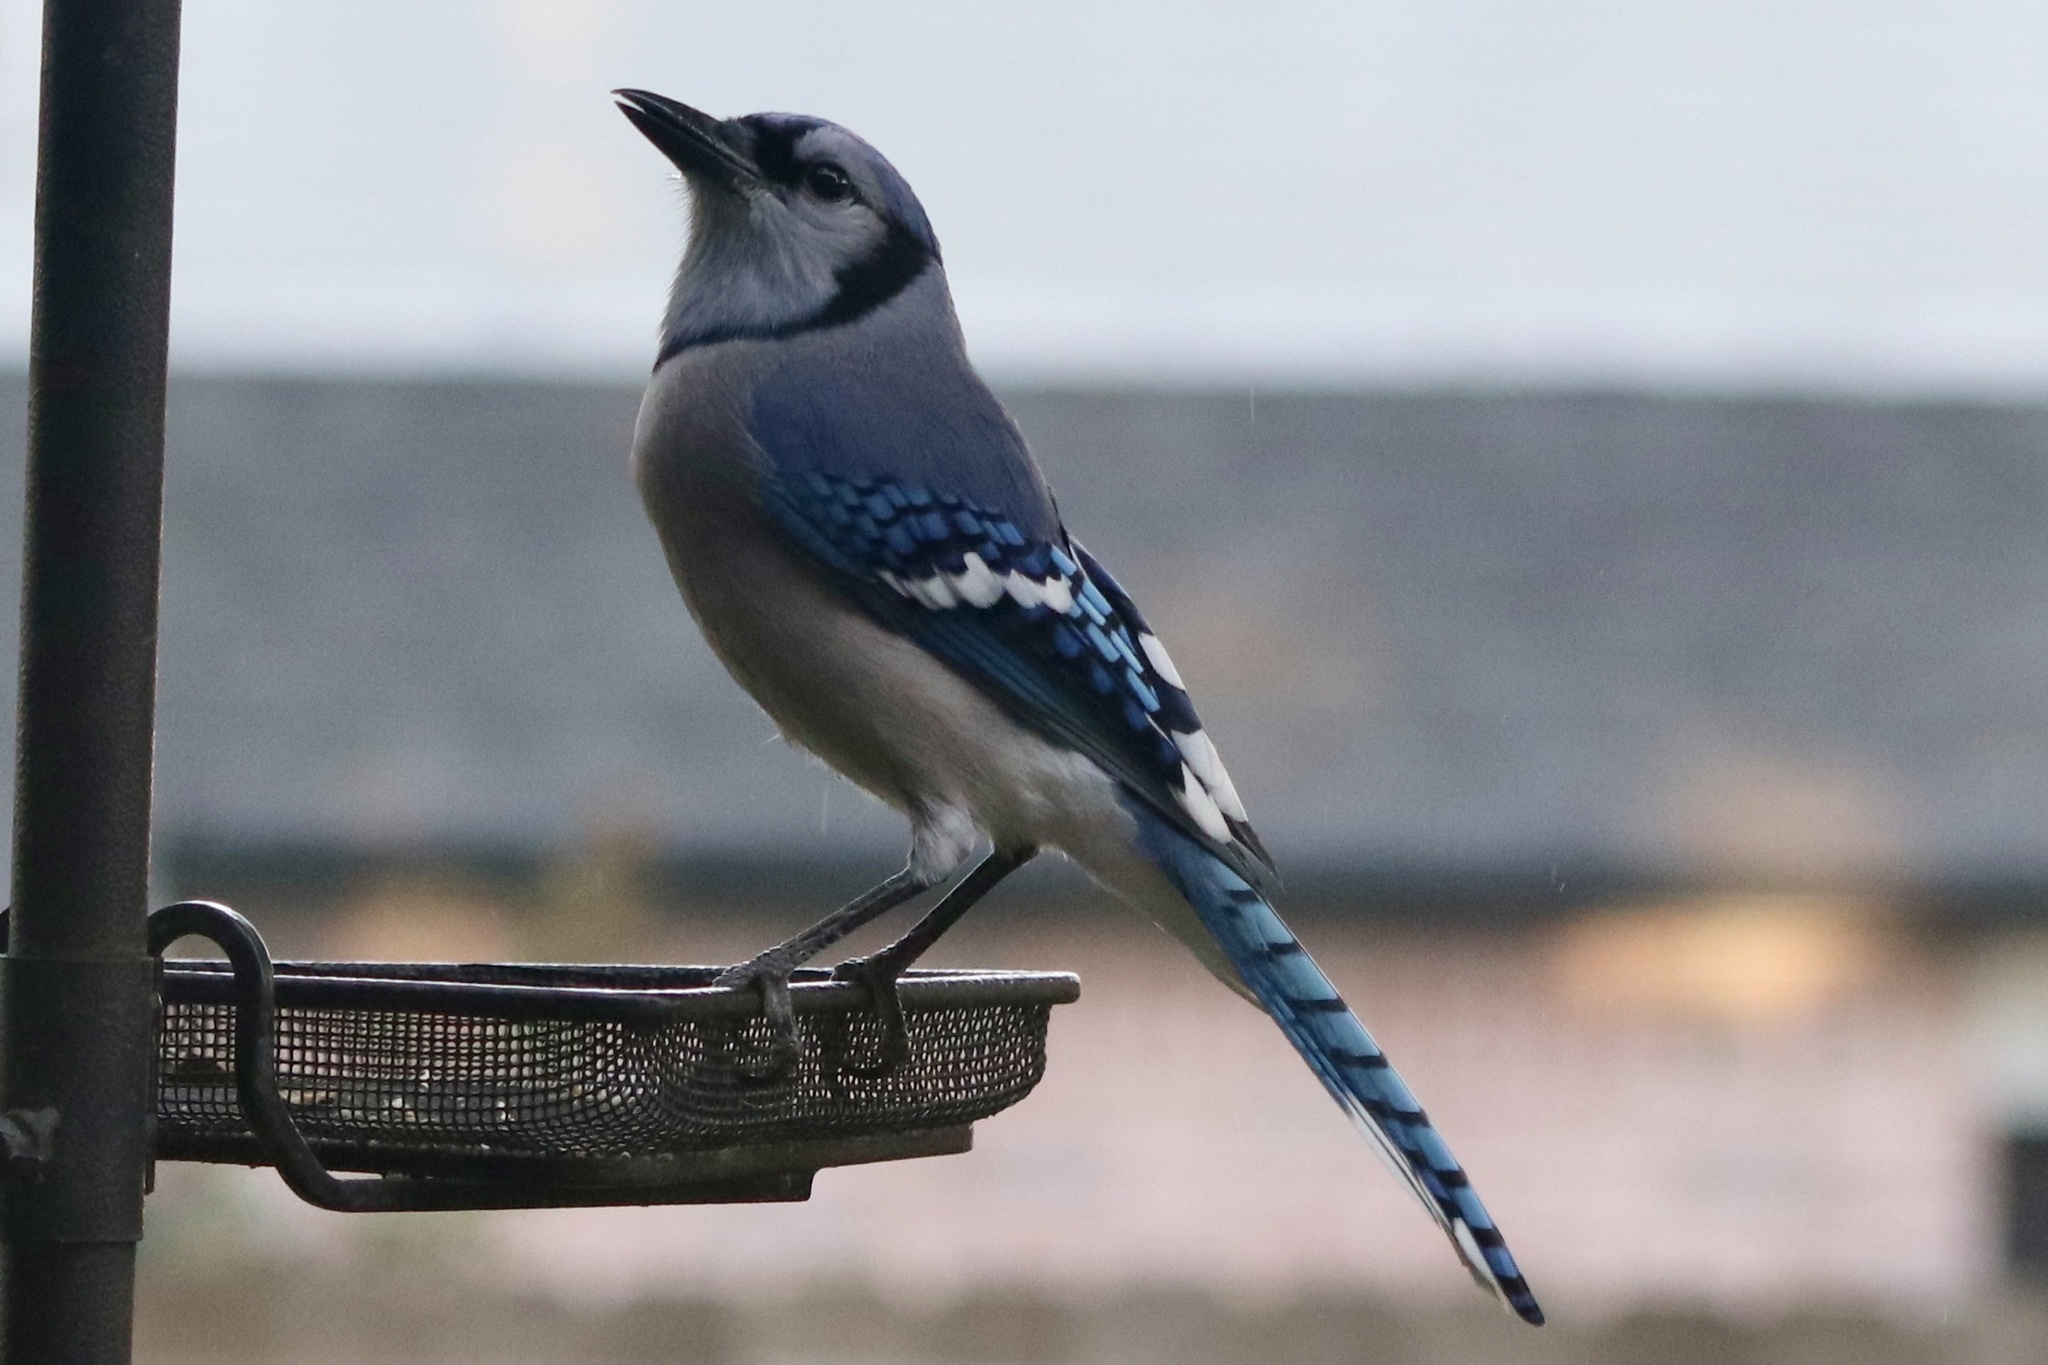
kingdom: Animalia
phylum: Chordata
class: Aves
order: Passeriformes
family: Corvidae
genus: Cyanocitta
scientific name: Cyanocitta cristata
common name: Blue jay
